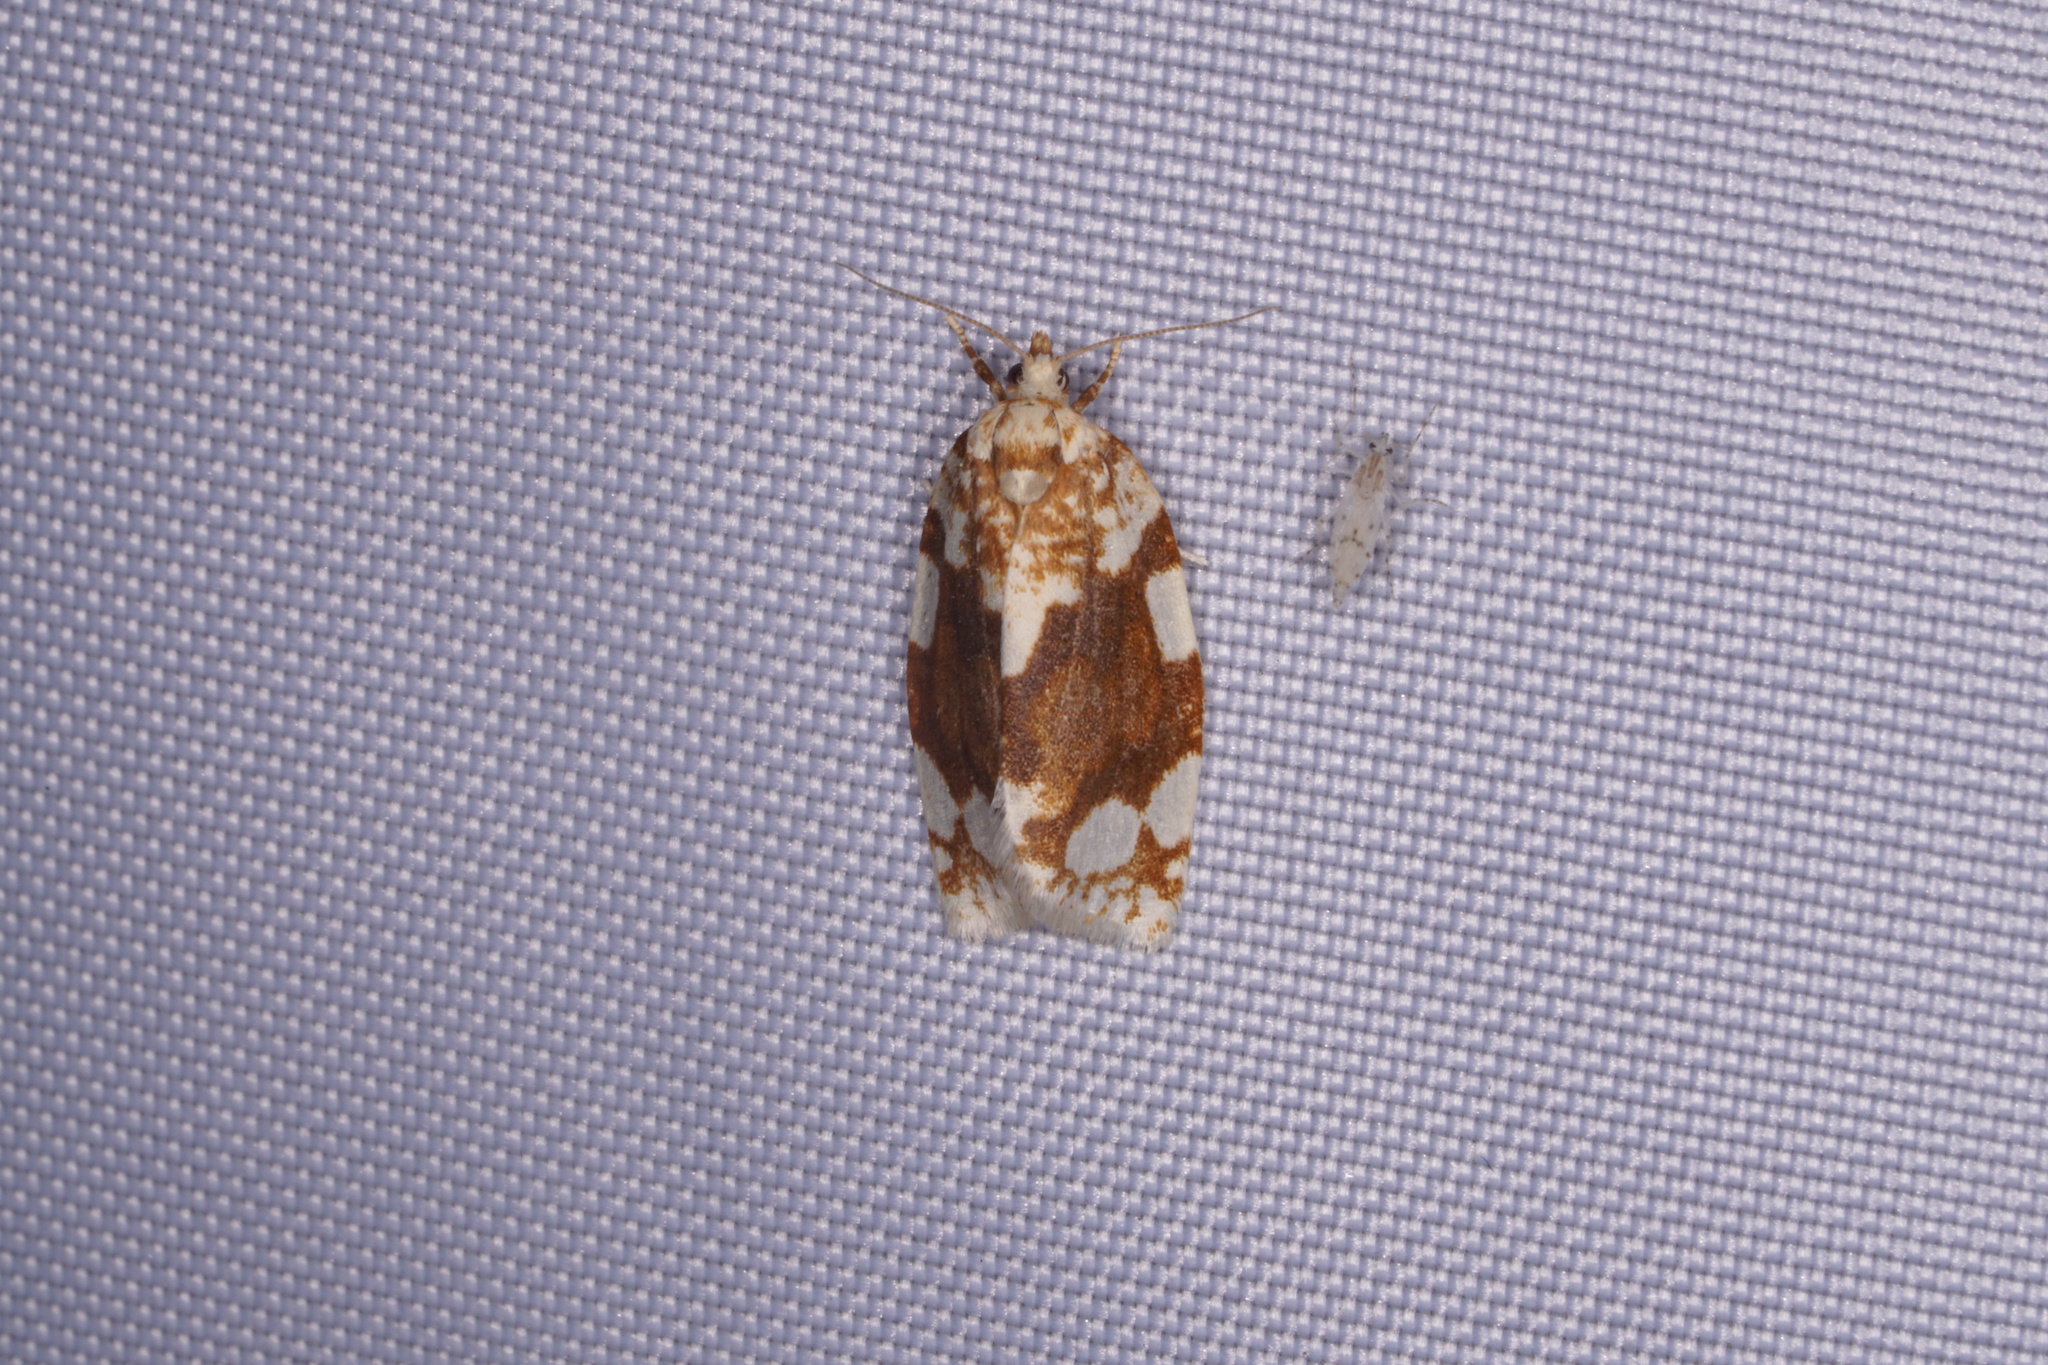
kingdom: Animalia
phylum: Arthropoda
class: Insecta
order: Lepidoptera
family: Tortricidae
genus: Argyrotaenia
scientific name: Argyrotaenia alisellana
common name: White-spotted leafroller moth
